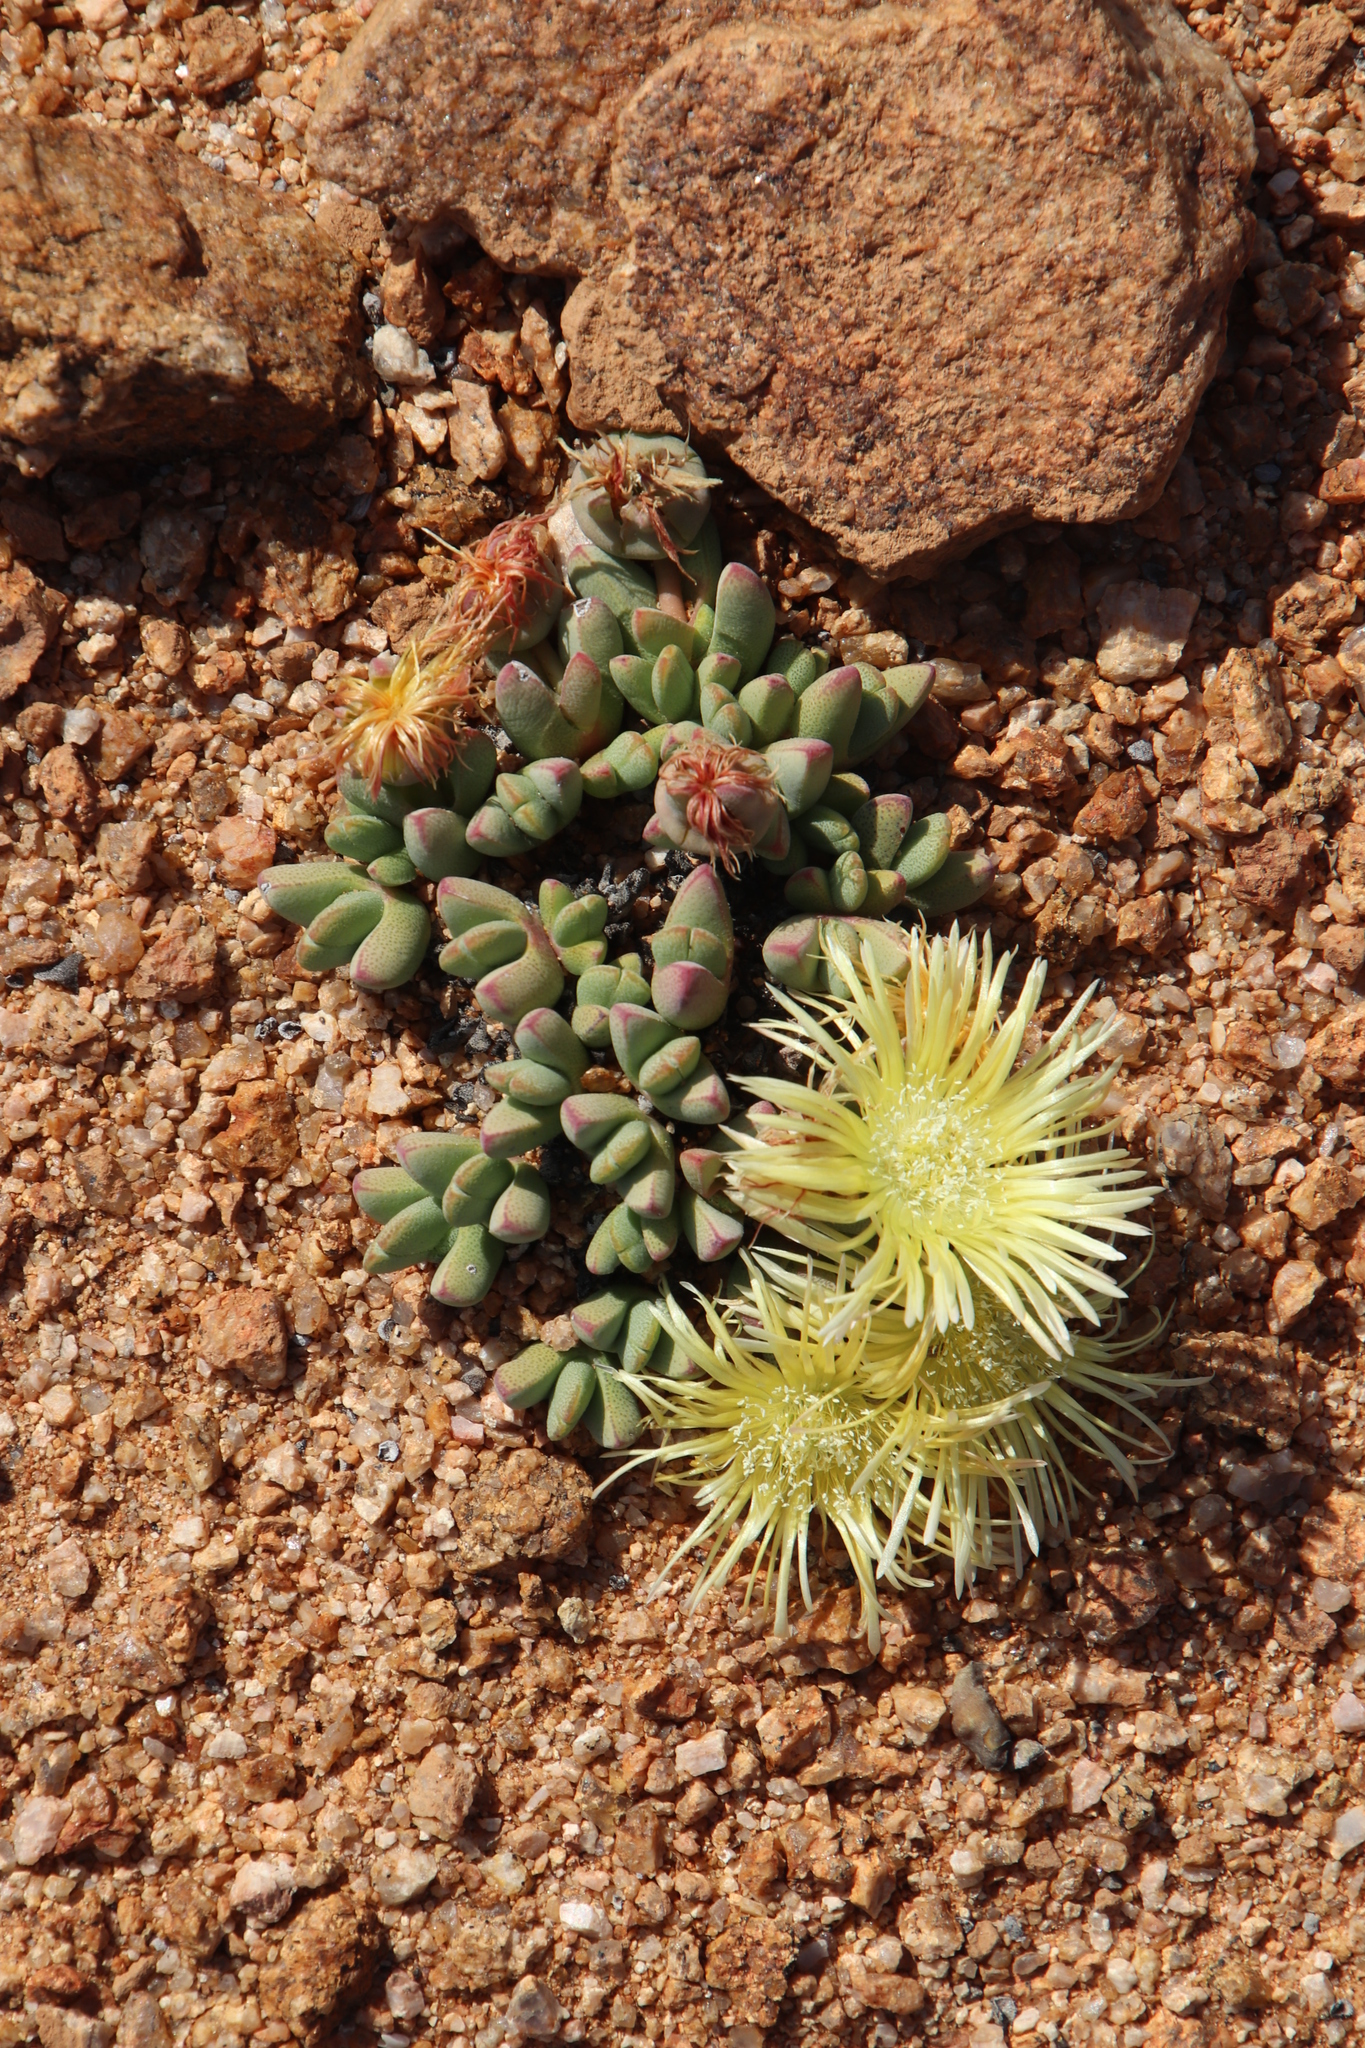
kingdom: Plantae
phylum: Tracheophyta
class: Magnoliopsida
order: Caryophyllales
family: Aizoaceae
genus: Cheiridopsis
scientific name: Cheiridopsis schlechteri
